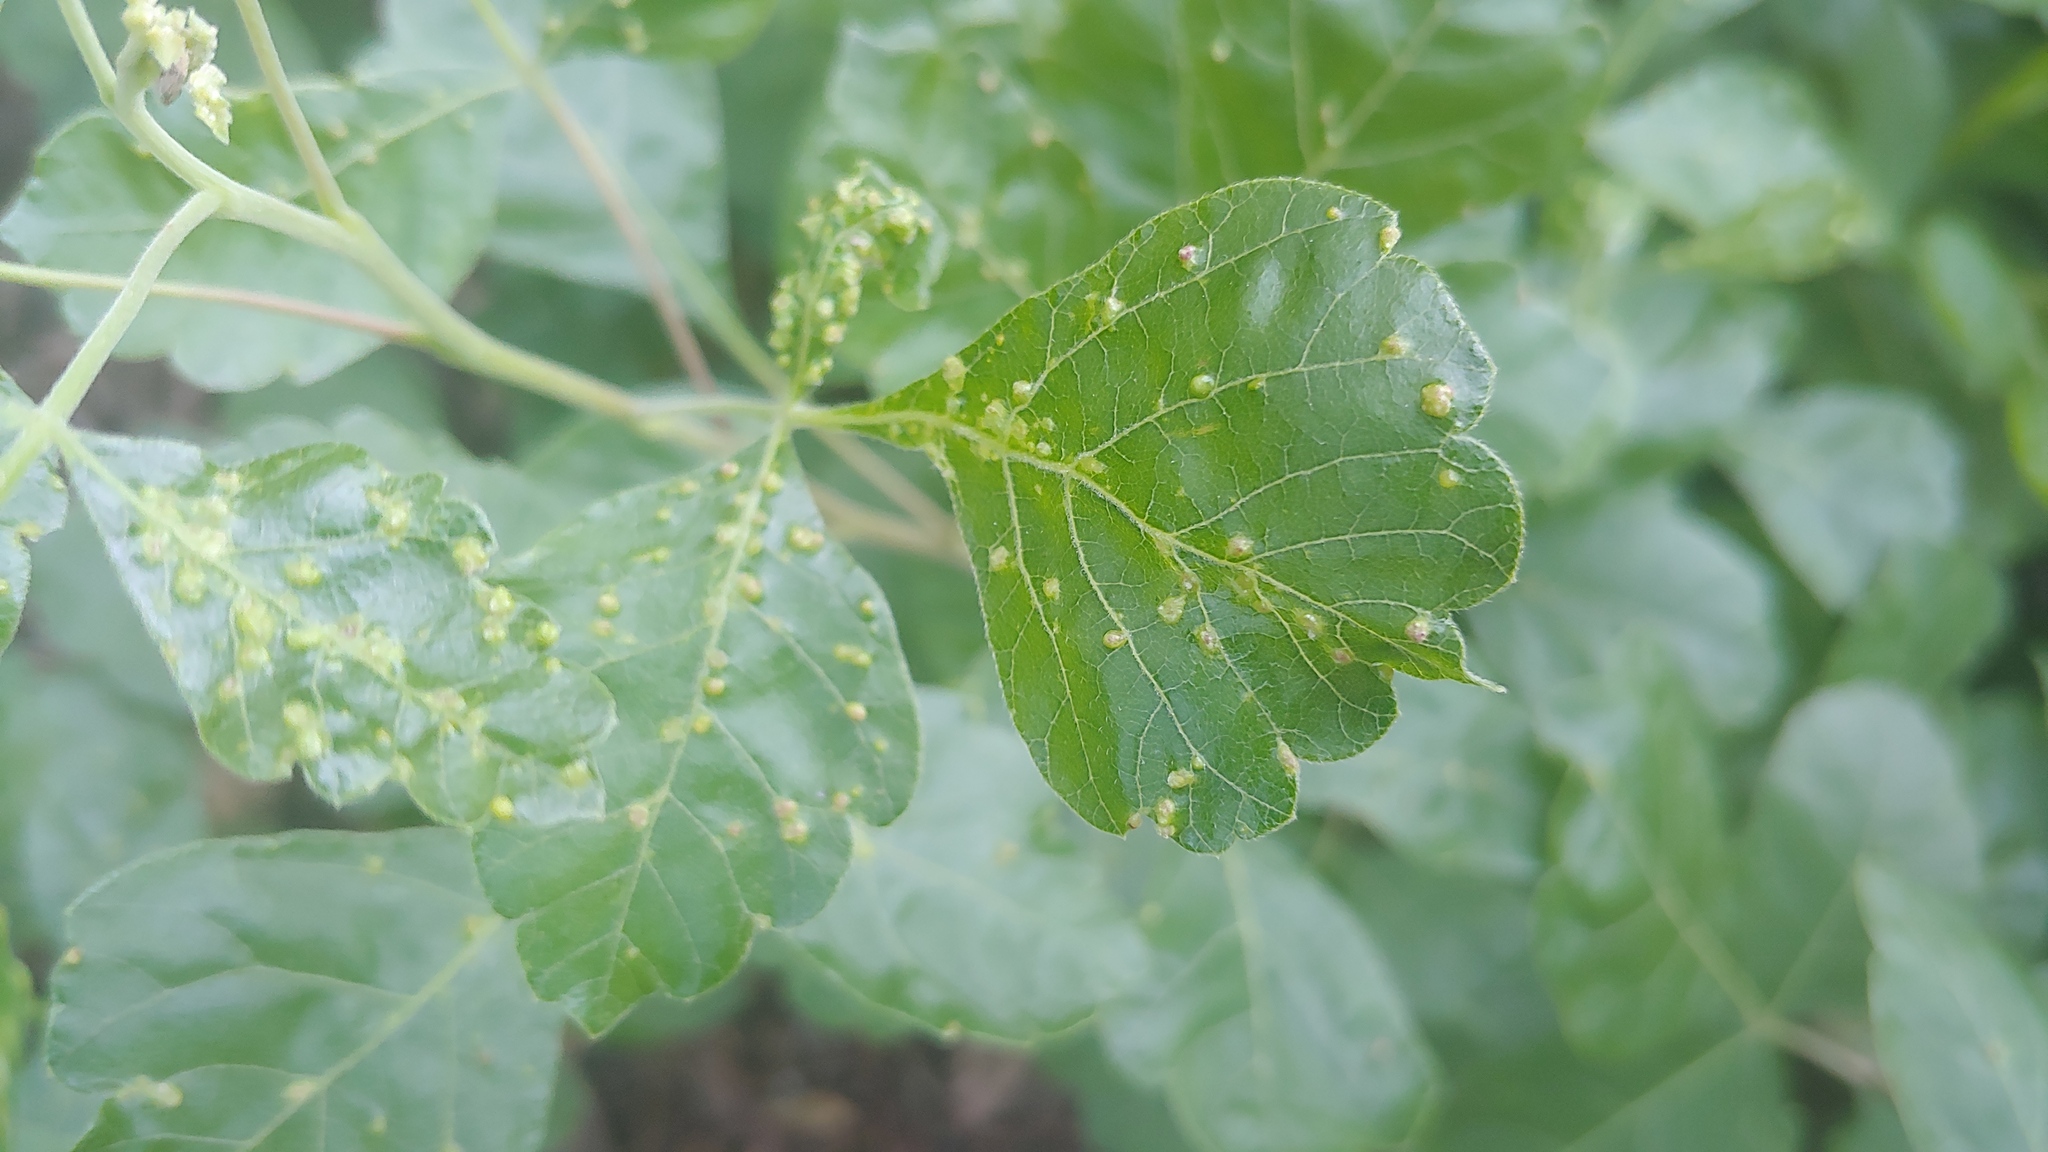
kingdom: Animalia
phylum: Arthropoda
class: Arachnida
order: Trombidiformes
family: Eriophyidae
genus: Aculops
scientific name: Aculops
